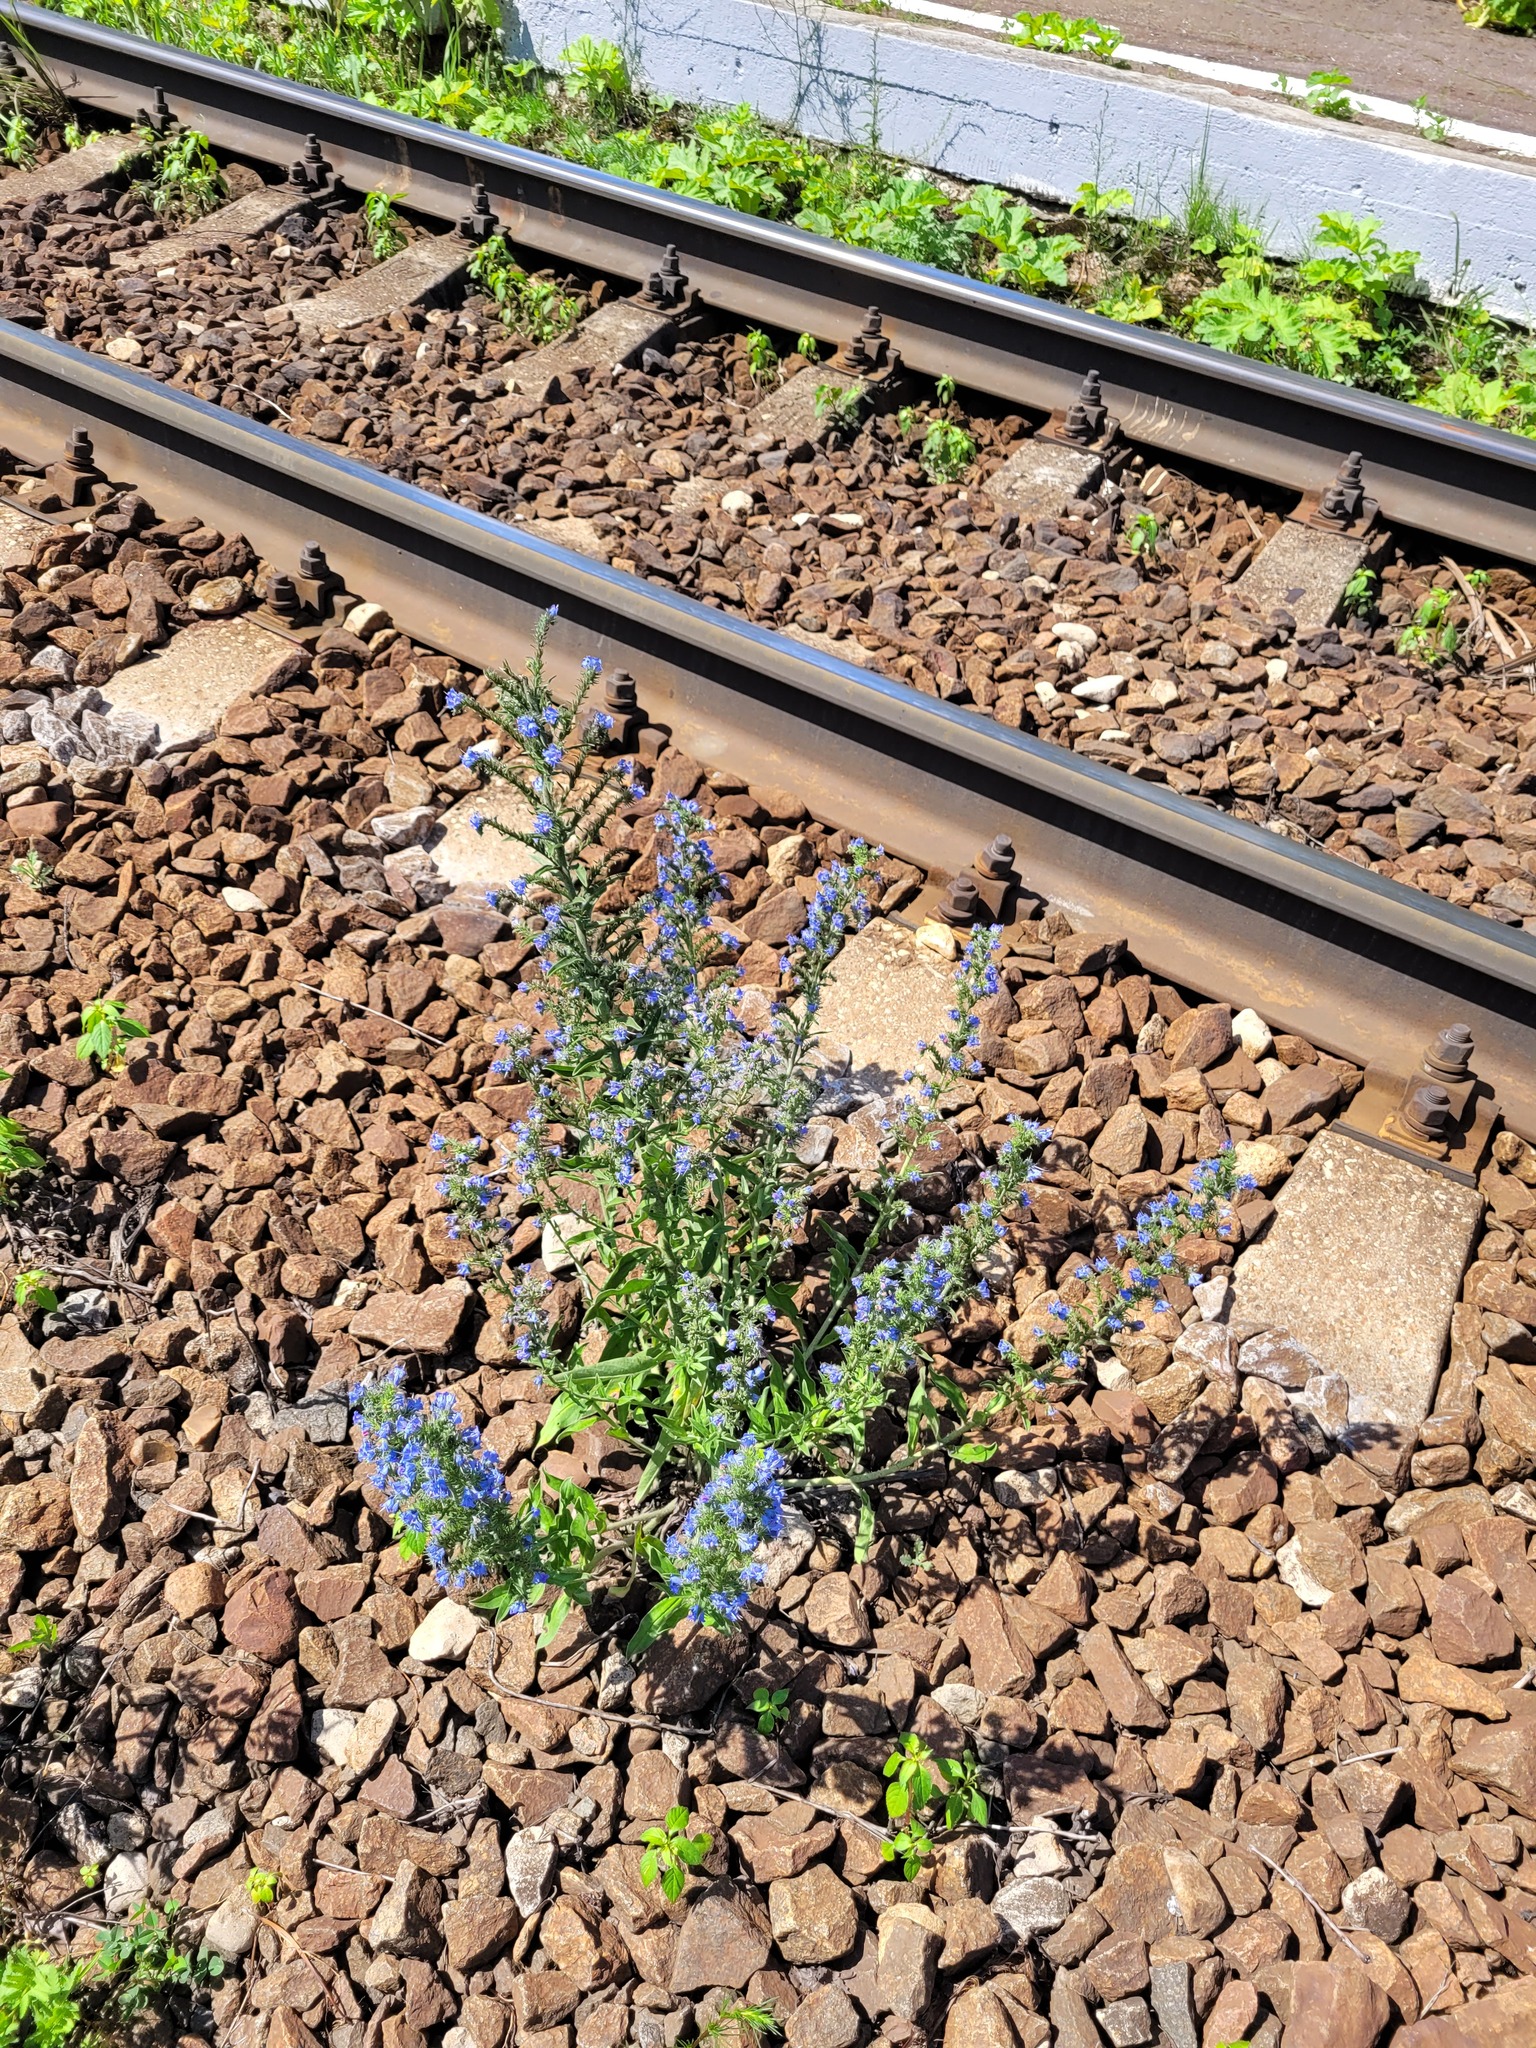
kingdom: Plantae
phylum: Tracheophyta
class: Magnoliopsida
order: Boraginales
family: Boraginaceae
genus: Echium
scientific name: Echium vulgare
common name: Common viper's bugloss
